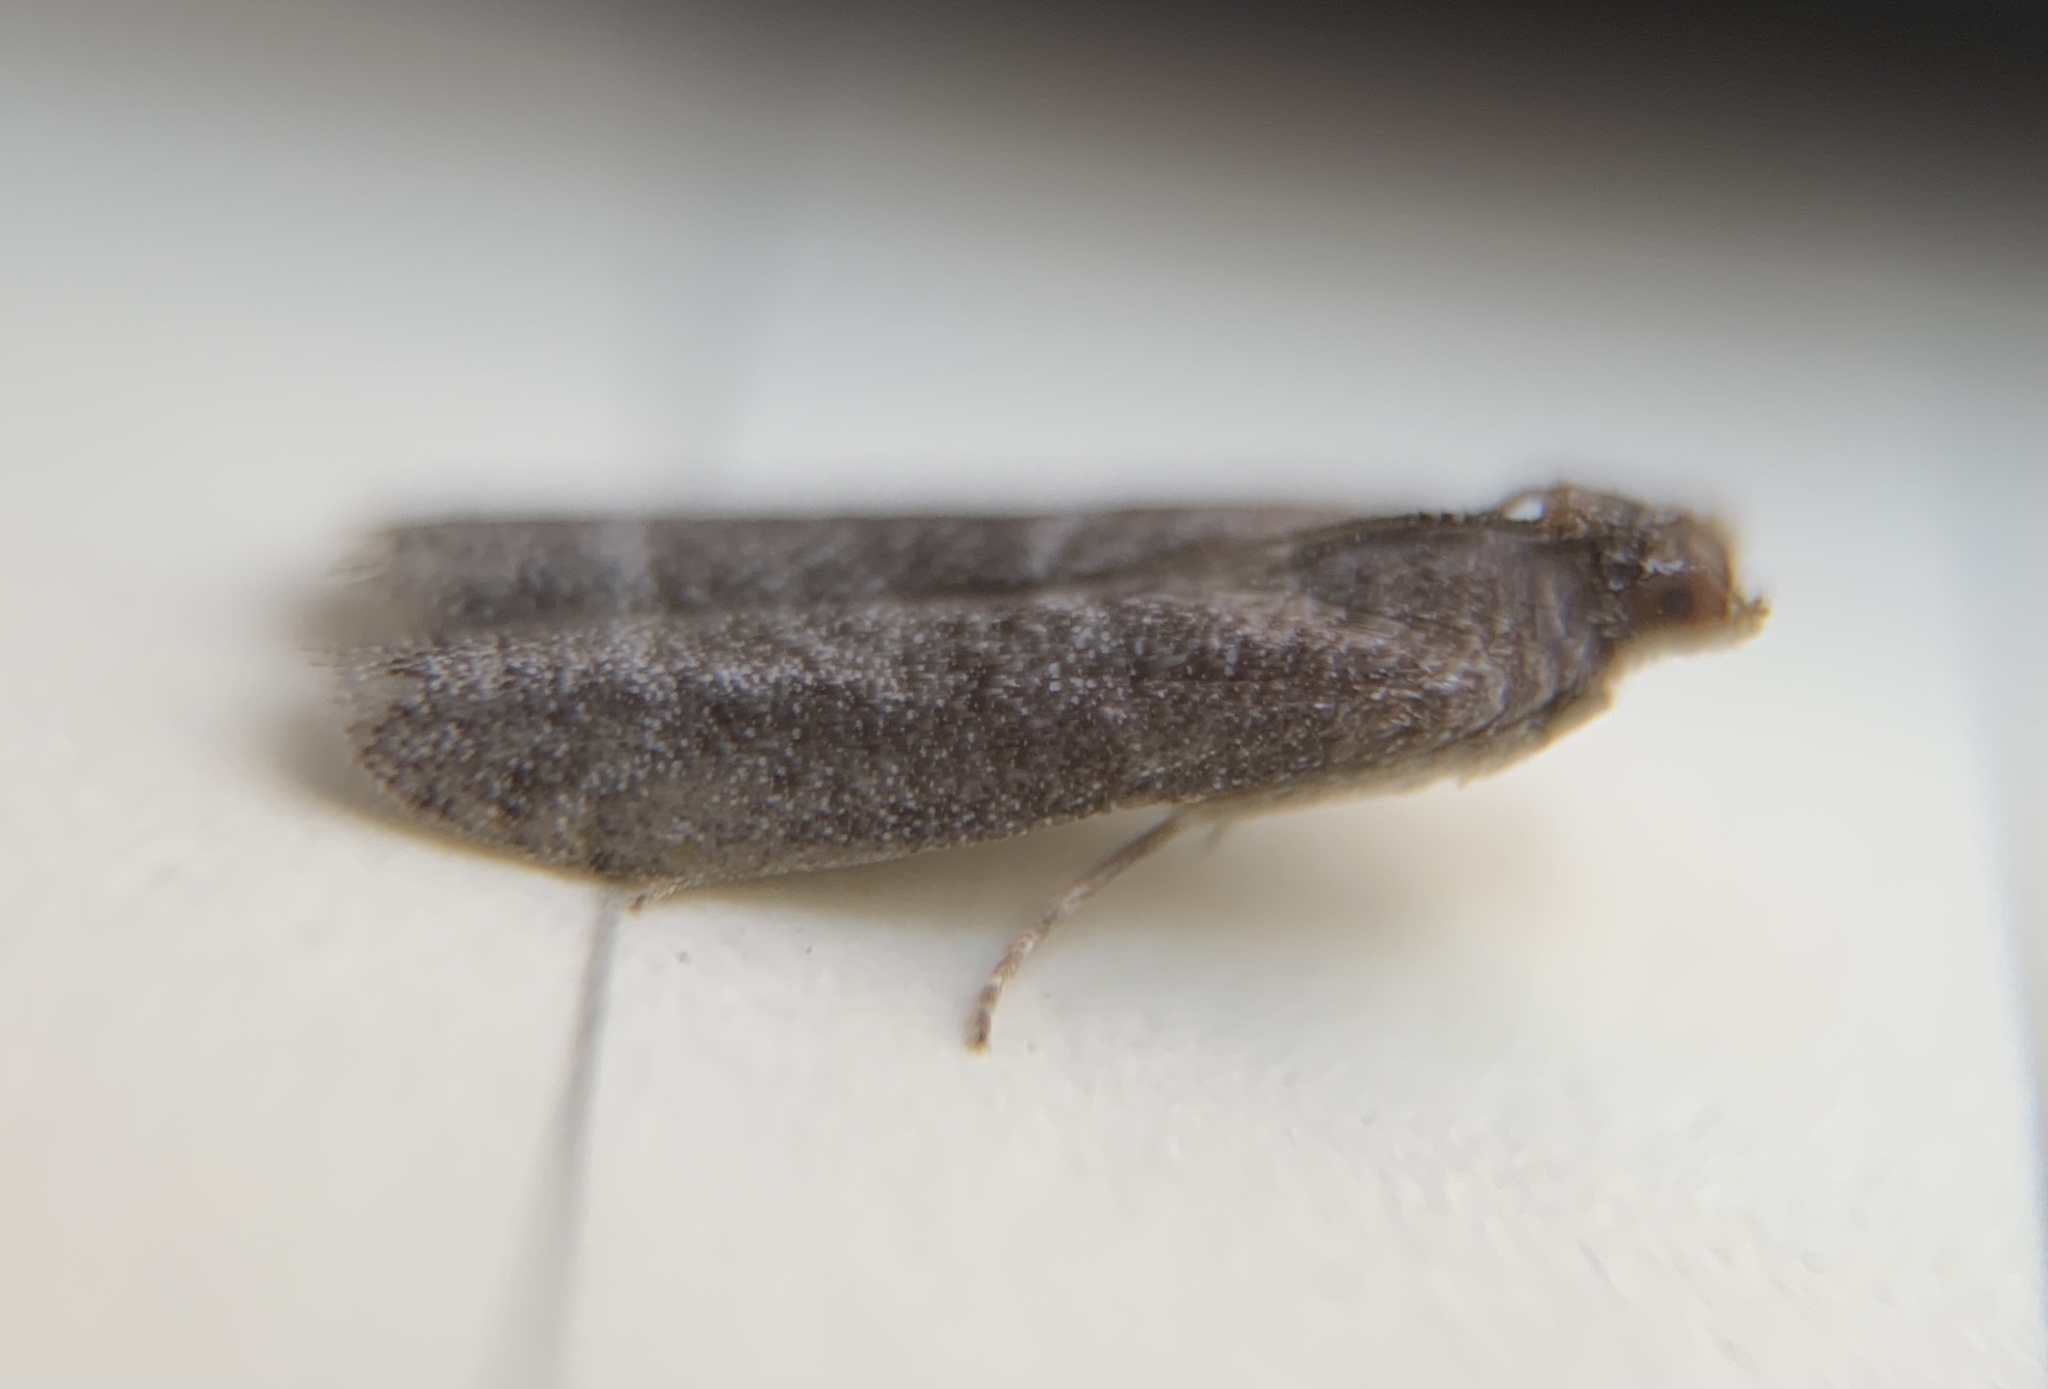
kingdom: Animalia
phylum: Arthropoda
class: Insecta
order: Lepidoptera
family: Pyralidae
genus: Cabnia
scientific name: Cabnia myronella
